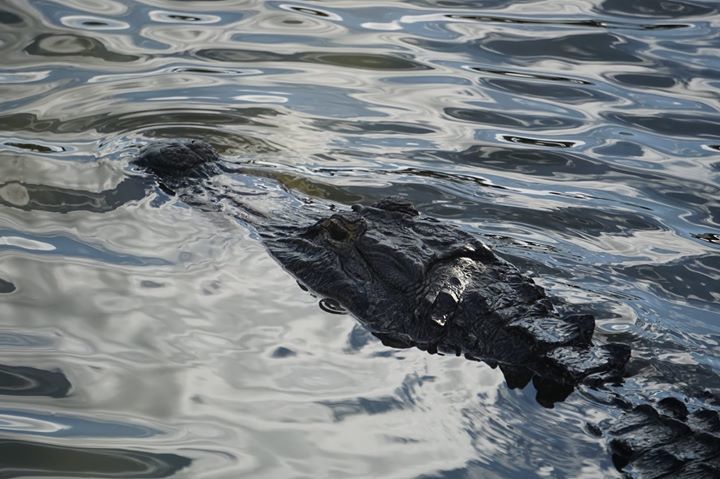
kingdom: Animalia
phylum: Chordata
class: Crocodylia
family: Alligatoridae
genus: Alligator
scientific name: Alligator mississippiensis
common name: American alligator
